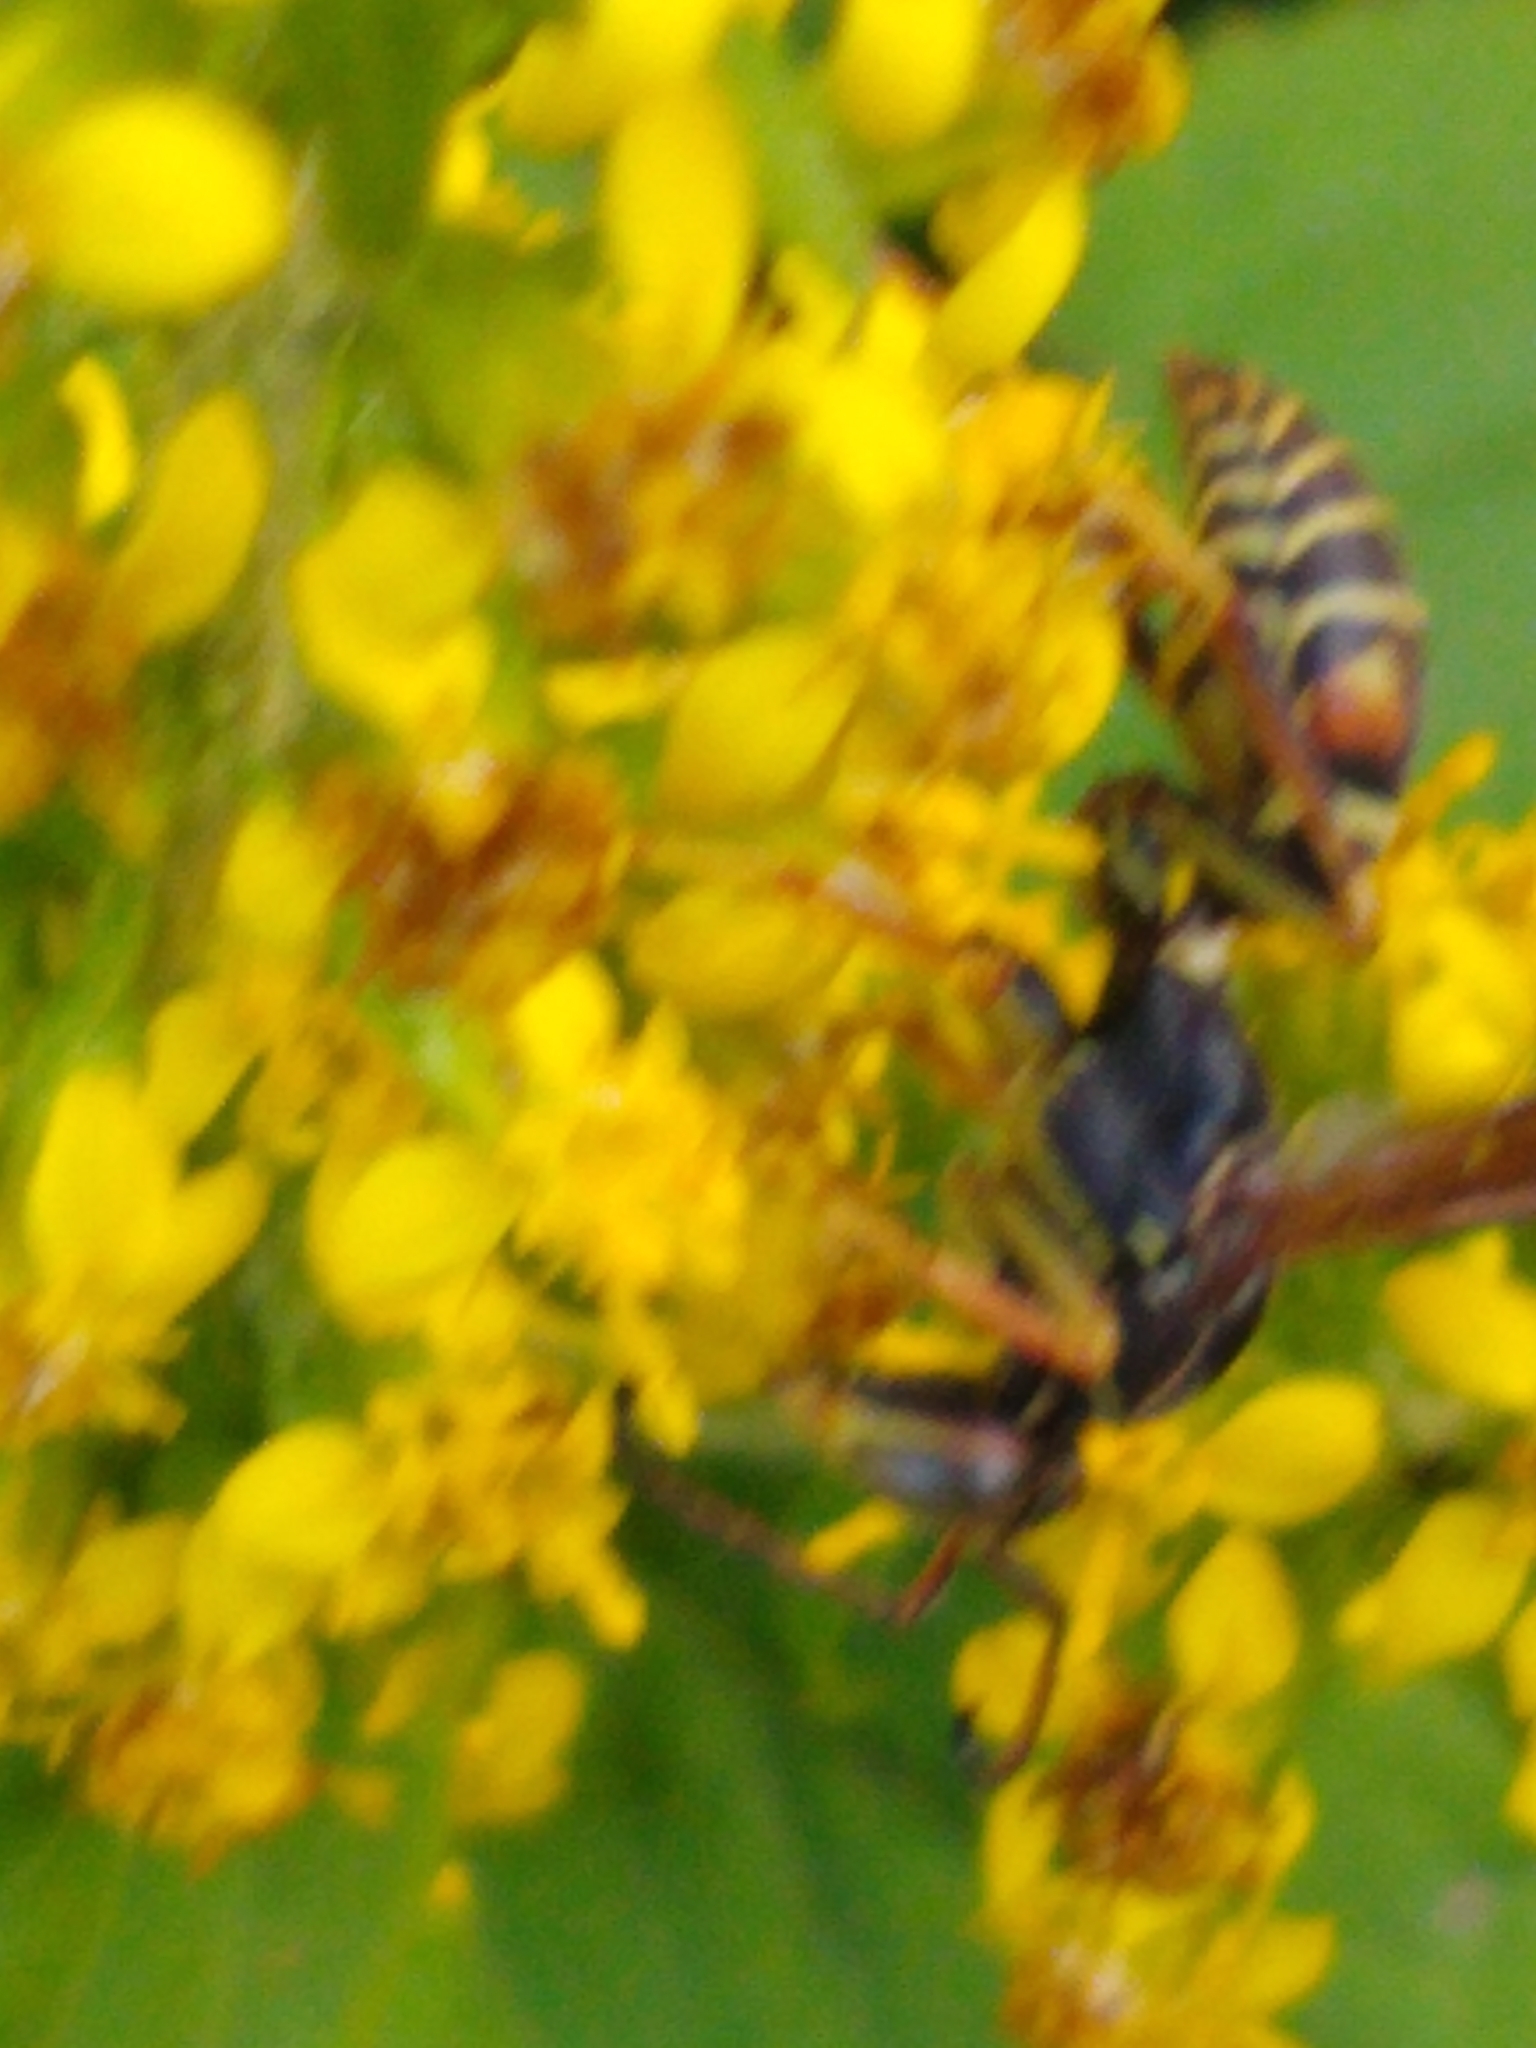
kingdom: Animalia
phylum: Arthropoda
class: Insecta
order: Hymenoptera
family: Eumenidae
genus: Polistes
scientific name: Polistes fuscatus
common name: Dark paper wasp
